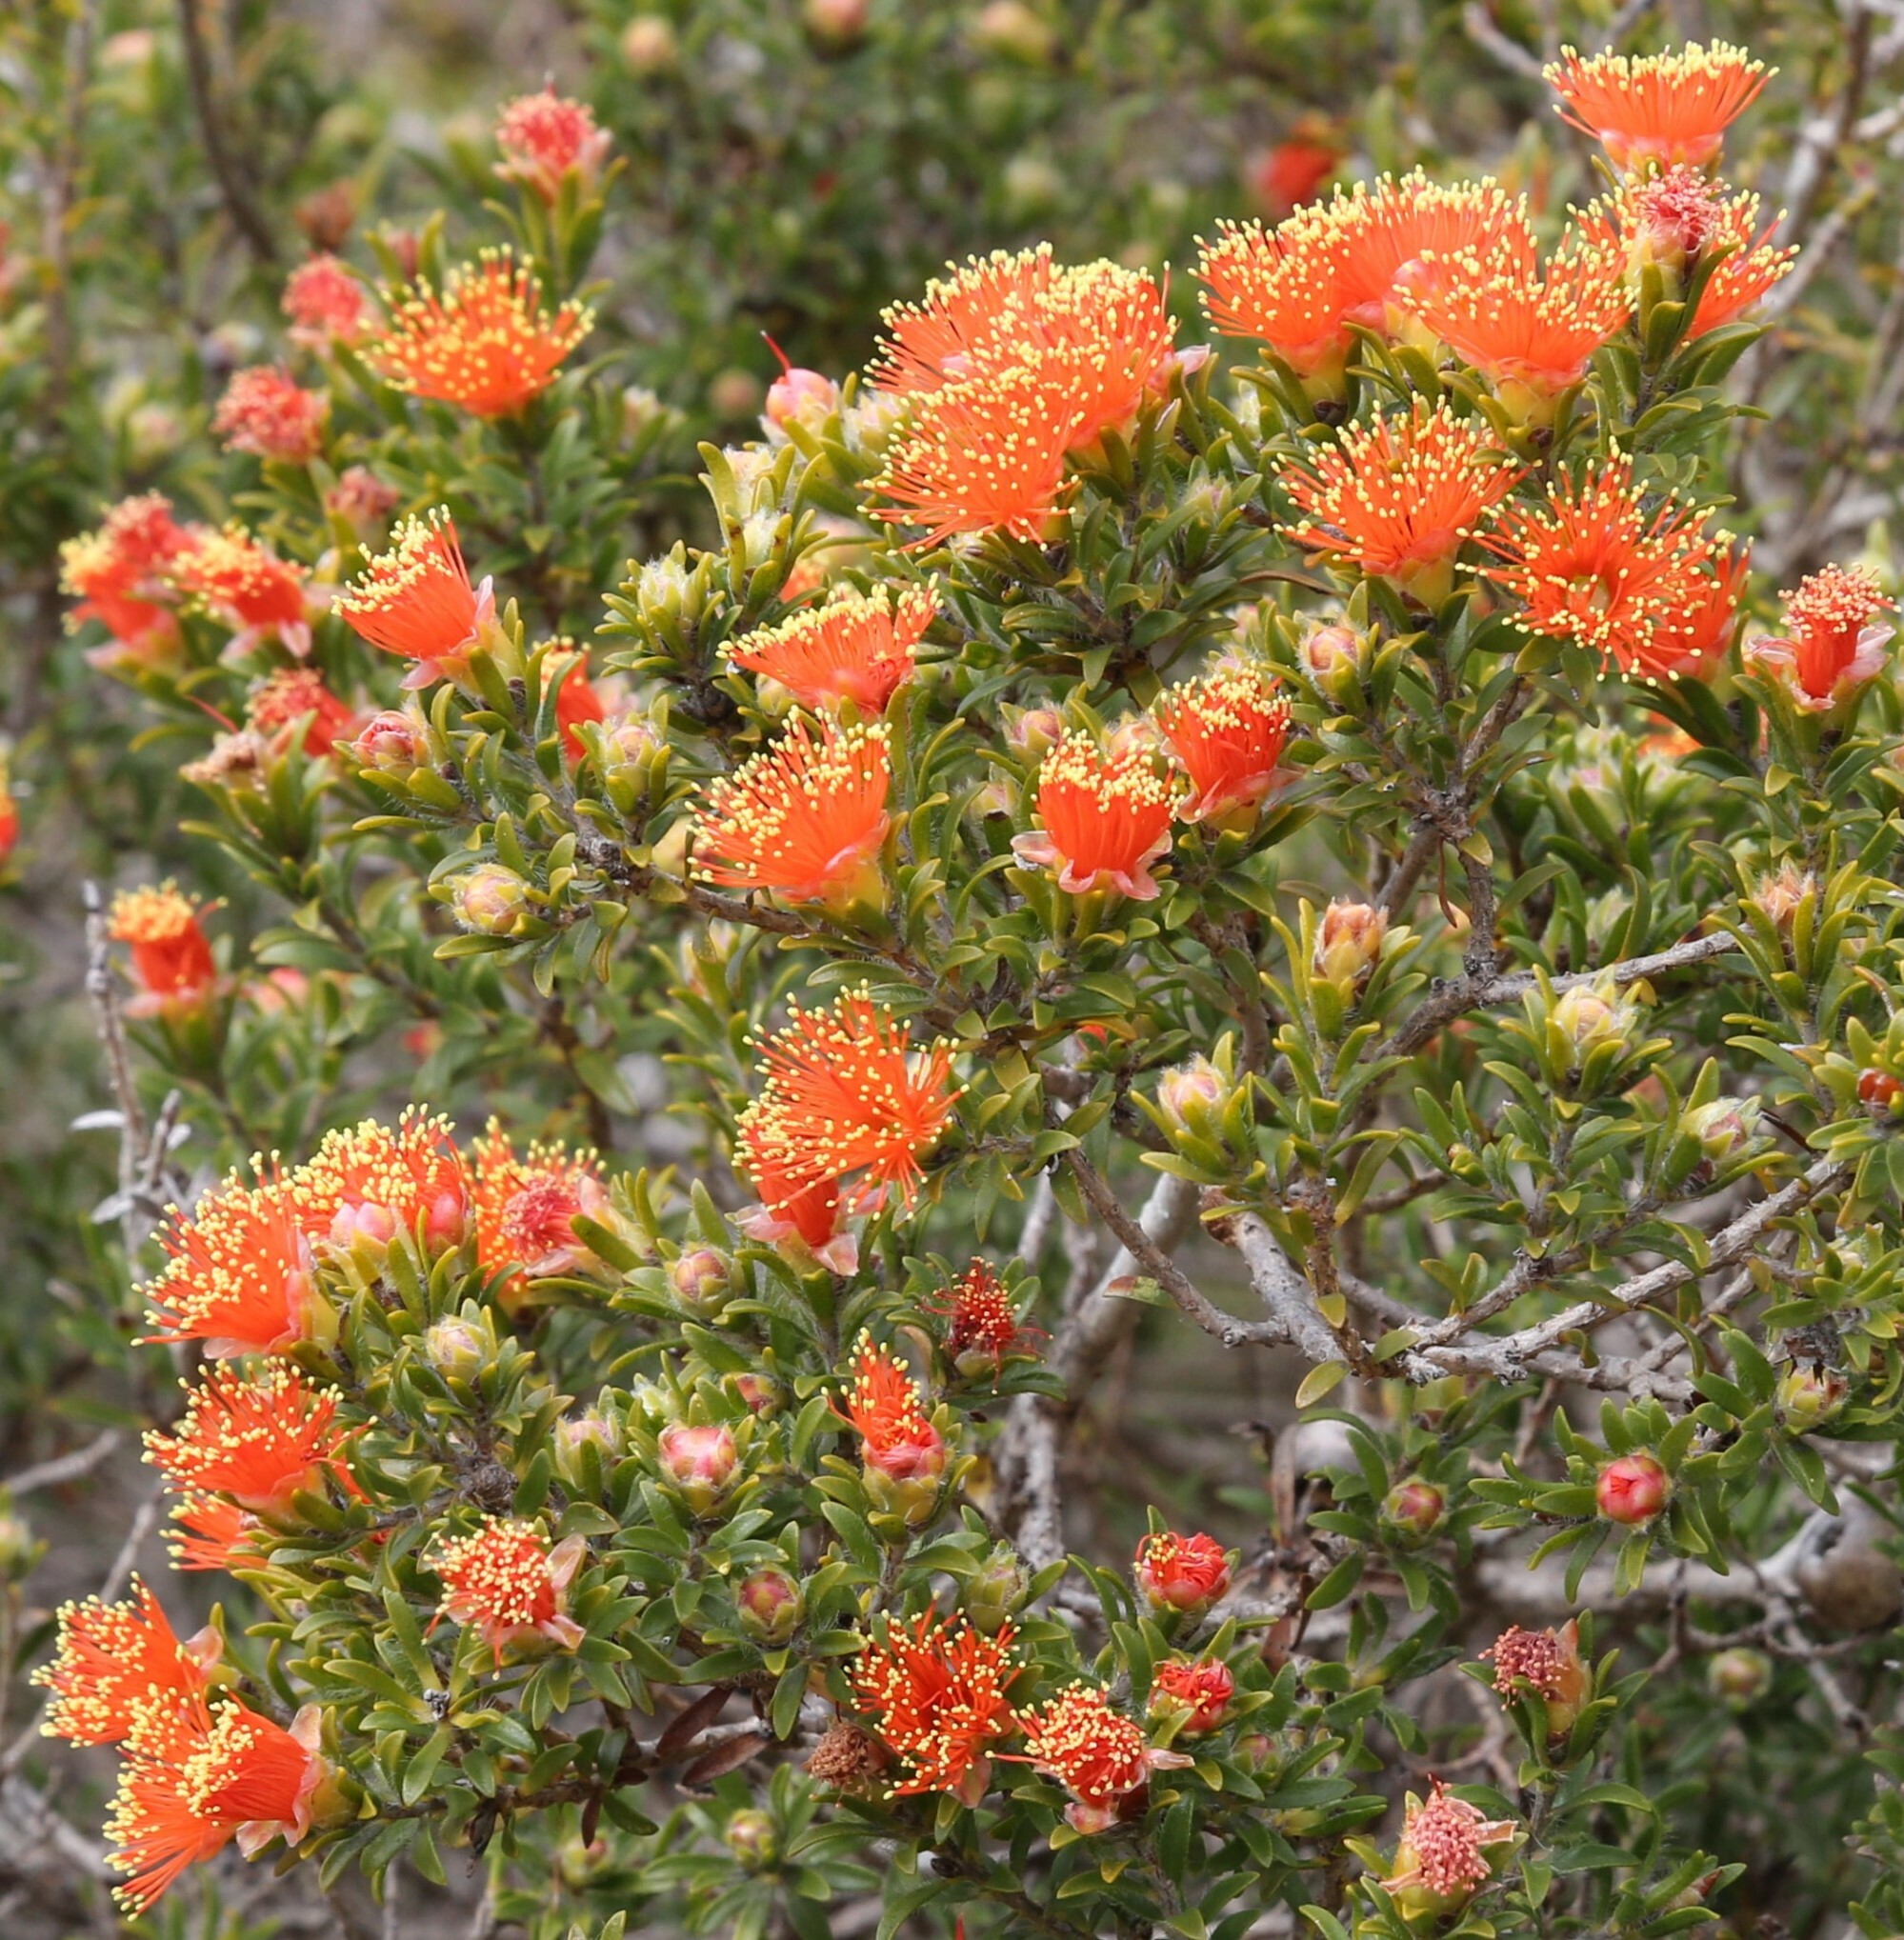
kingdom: Plantae
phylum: Tracheophyta
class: Magnoliopsida
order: Myrtales
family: Myrtaceae
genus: Melaleuca
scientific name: Melaleuca rariflora
